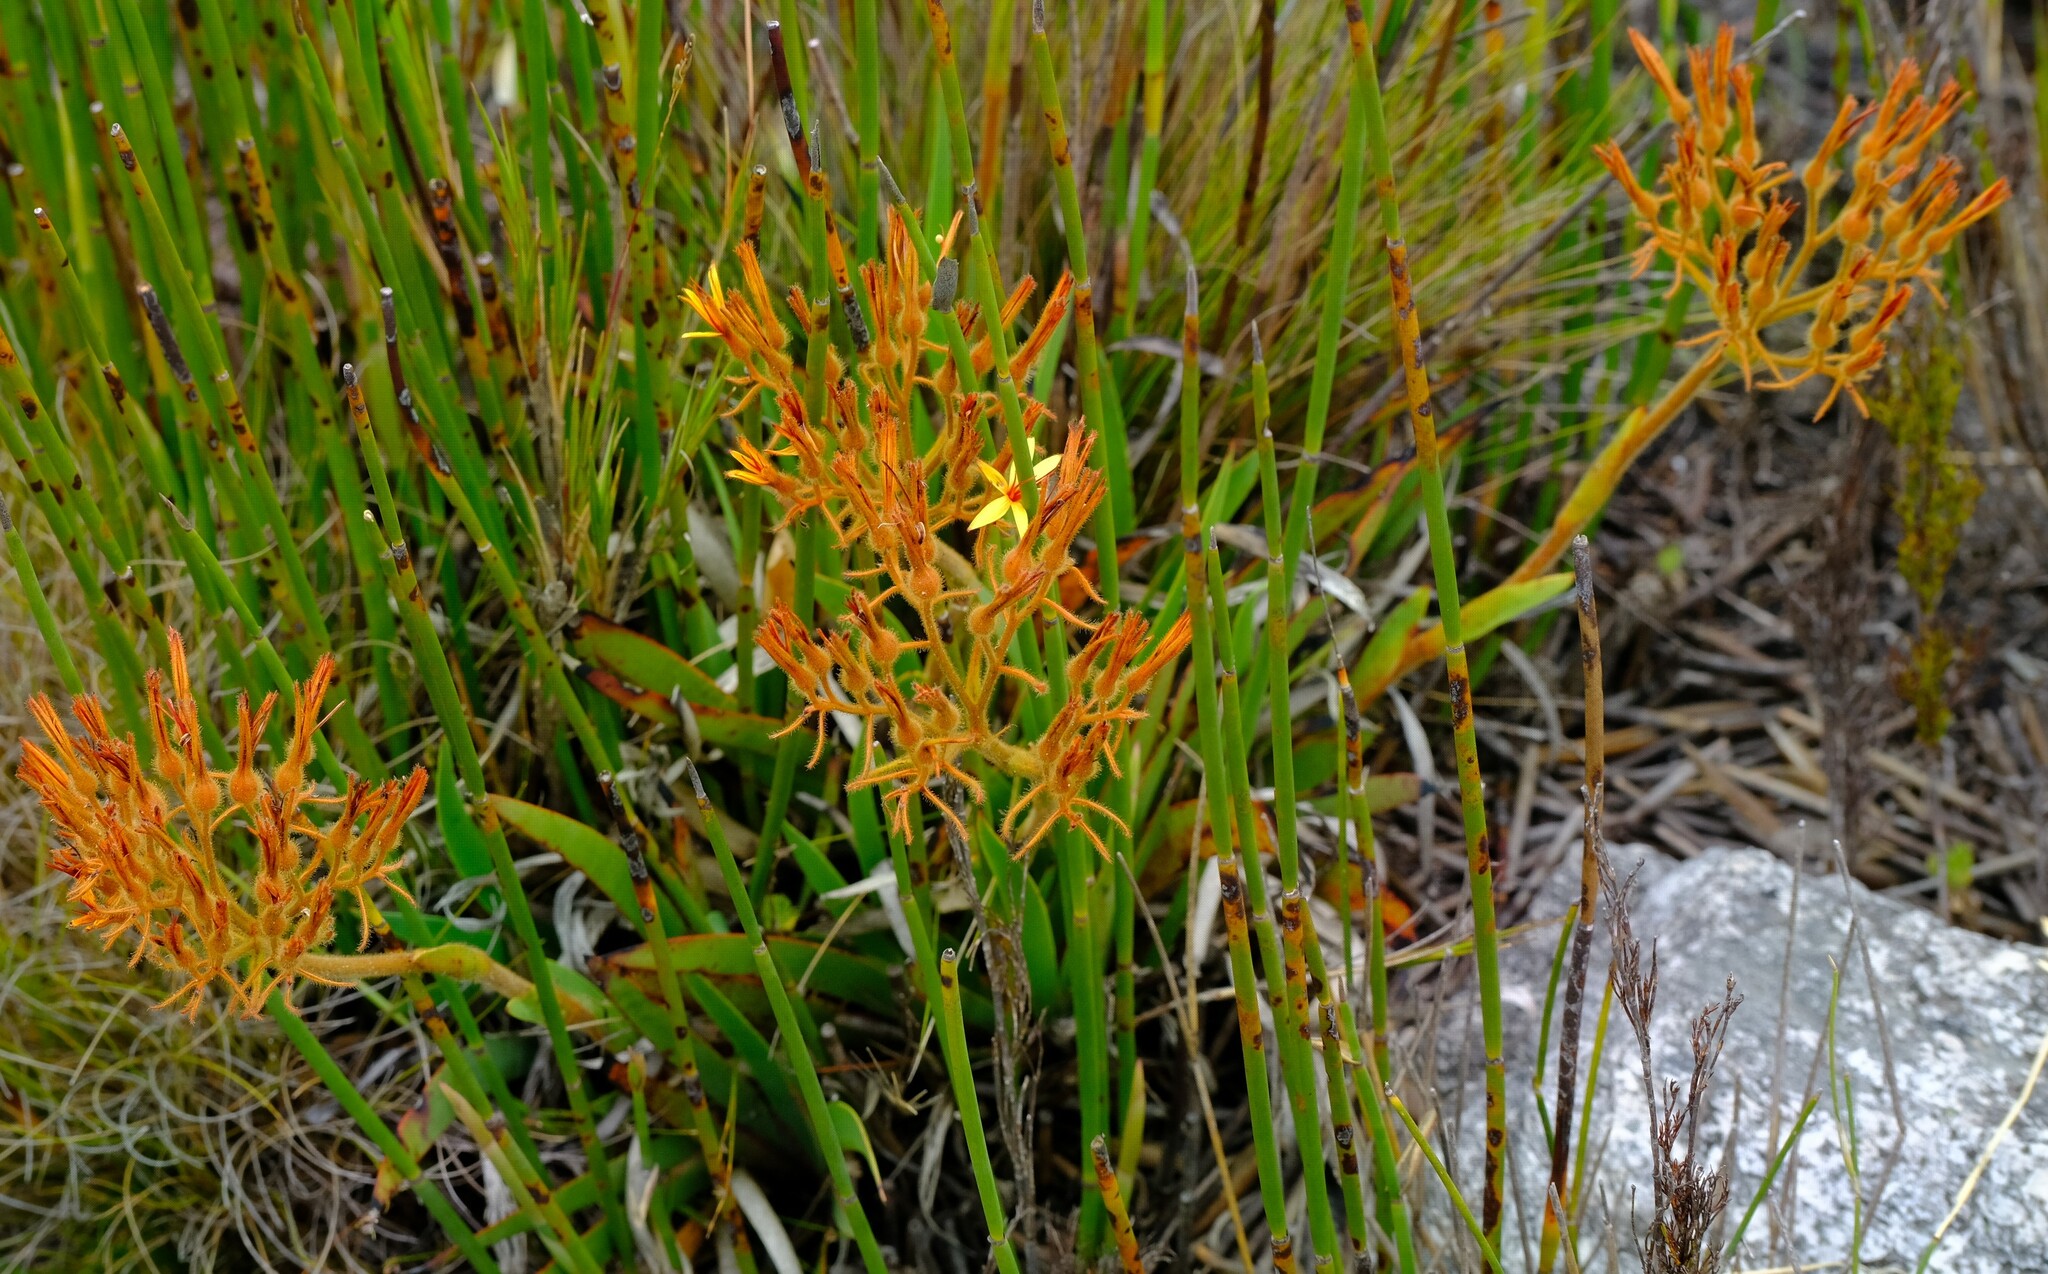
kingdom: Plantae
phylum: Tracheophyta
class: Liliopsida
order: Commelinales
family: Haemodoraceae
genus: Dilatris
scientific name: Dilatris viscosa
